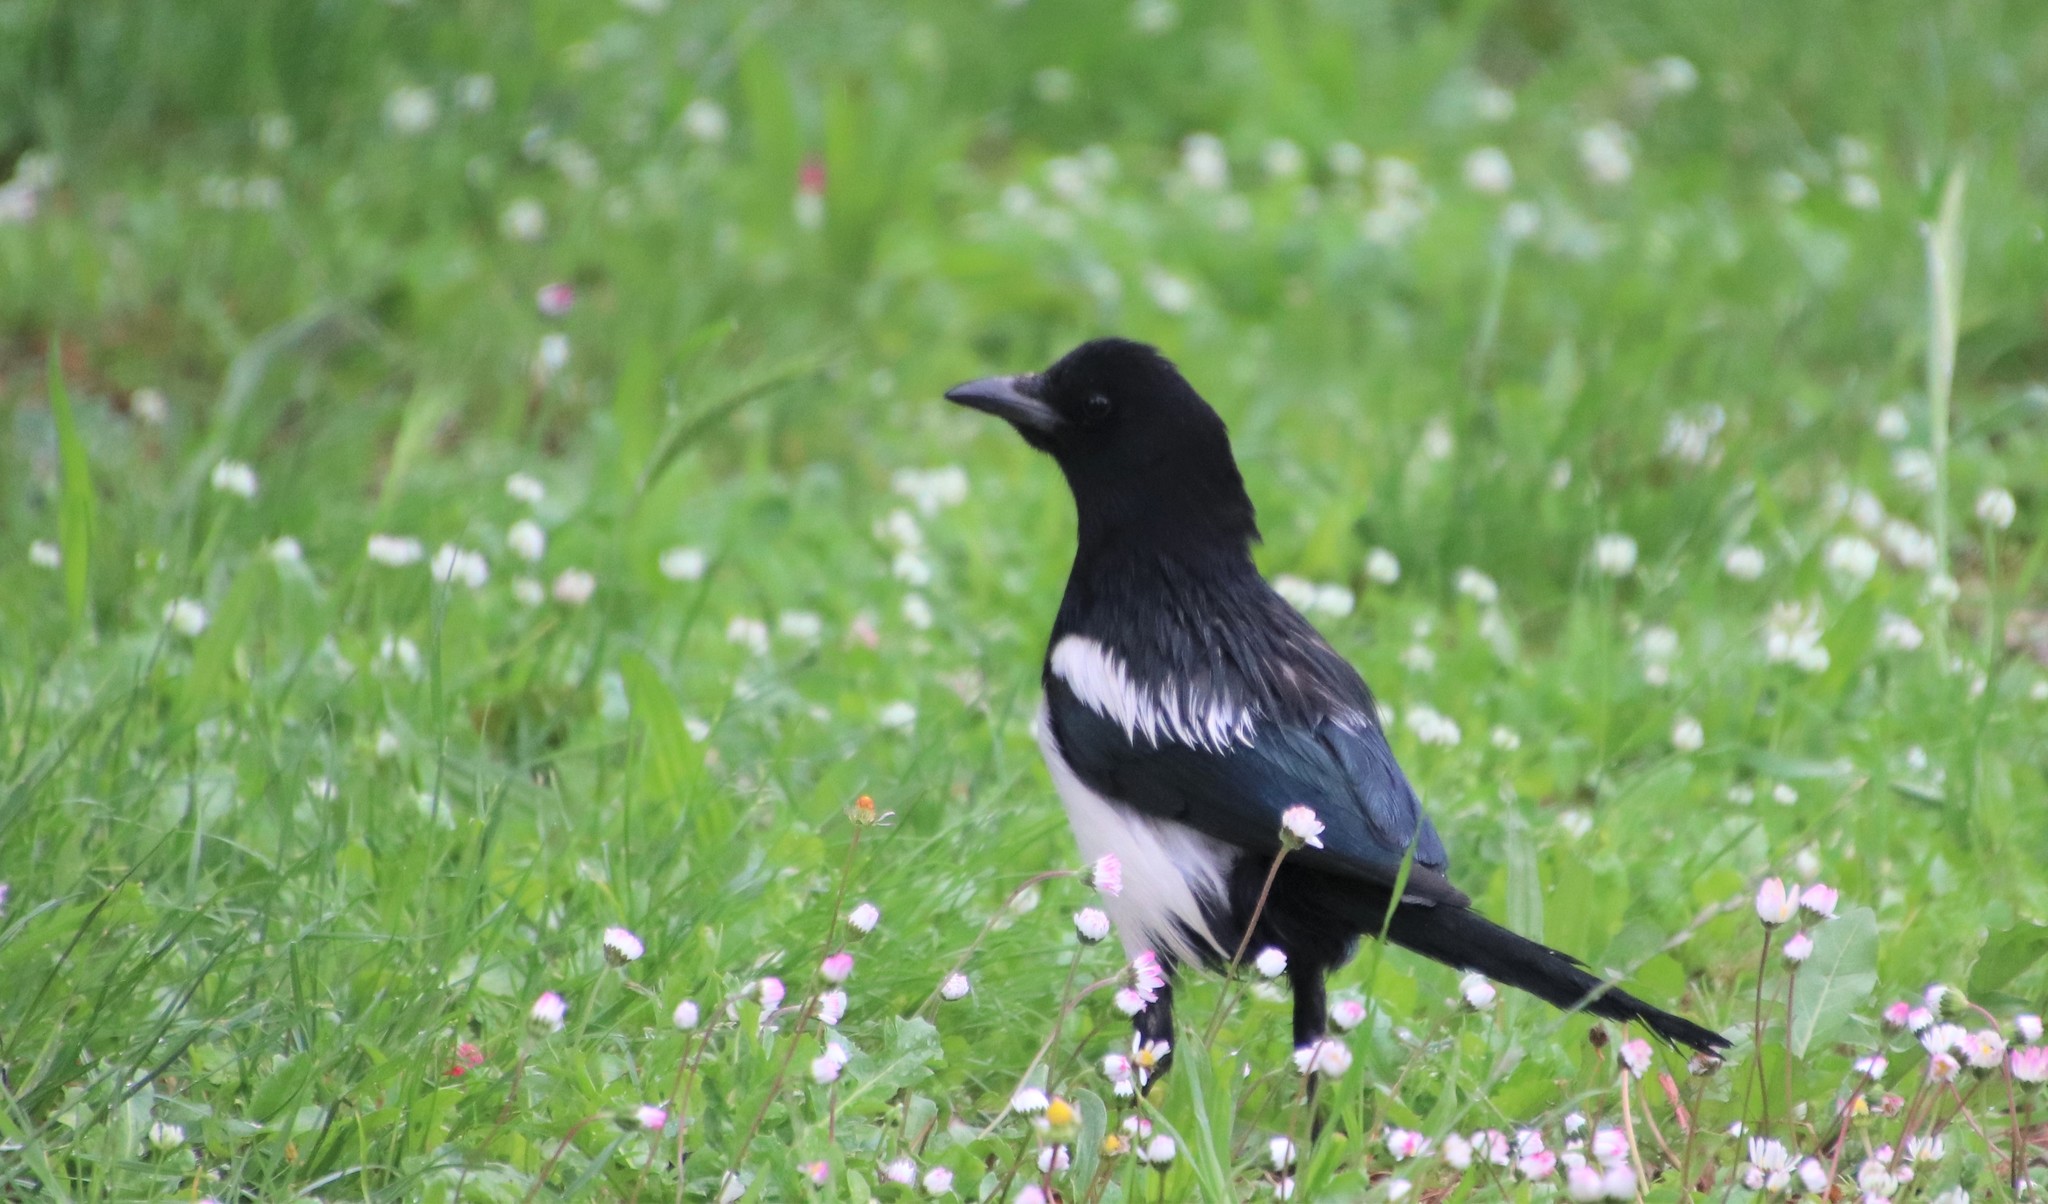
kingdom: Animalia
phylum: Chordata
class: Aves
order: Passeriformes
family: Corvidae
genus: Pica
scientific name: Pica pica
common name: Eurasian magpie
